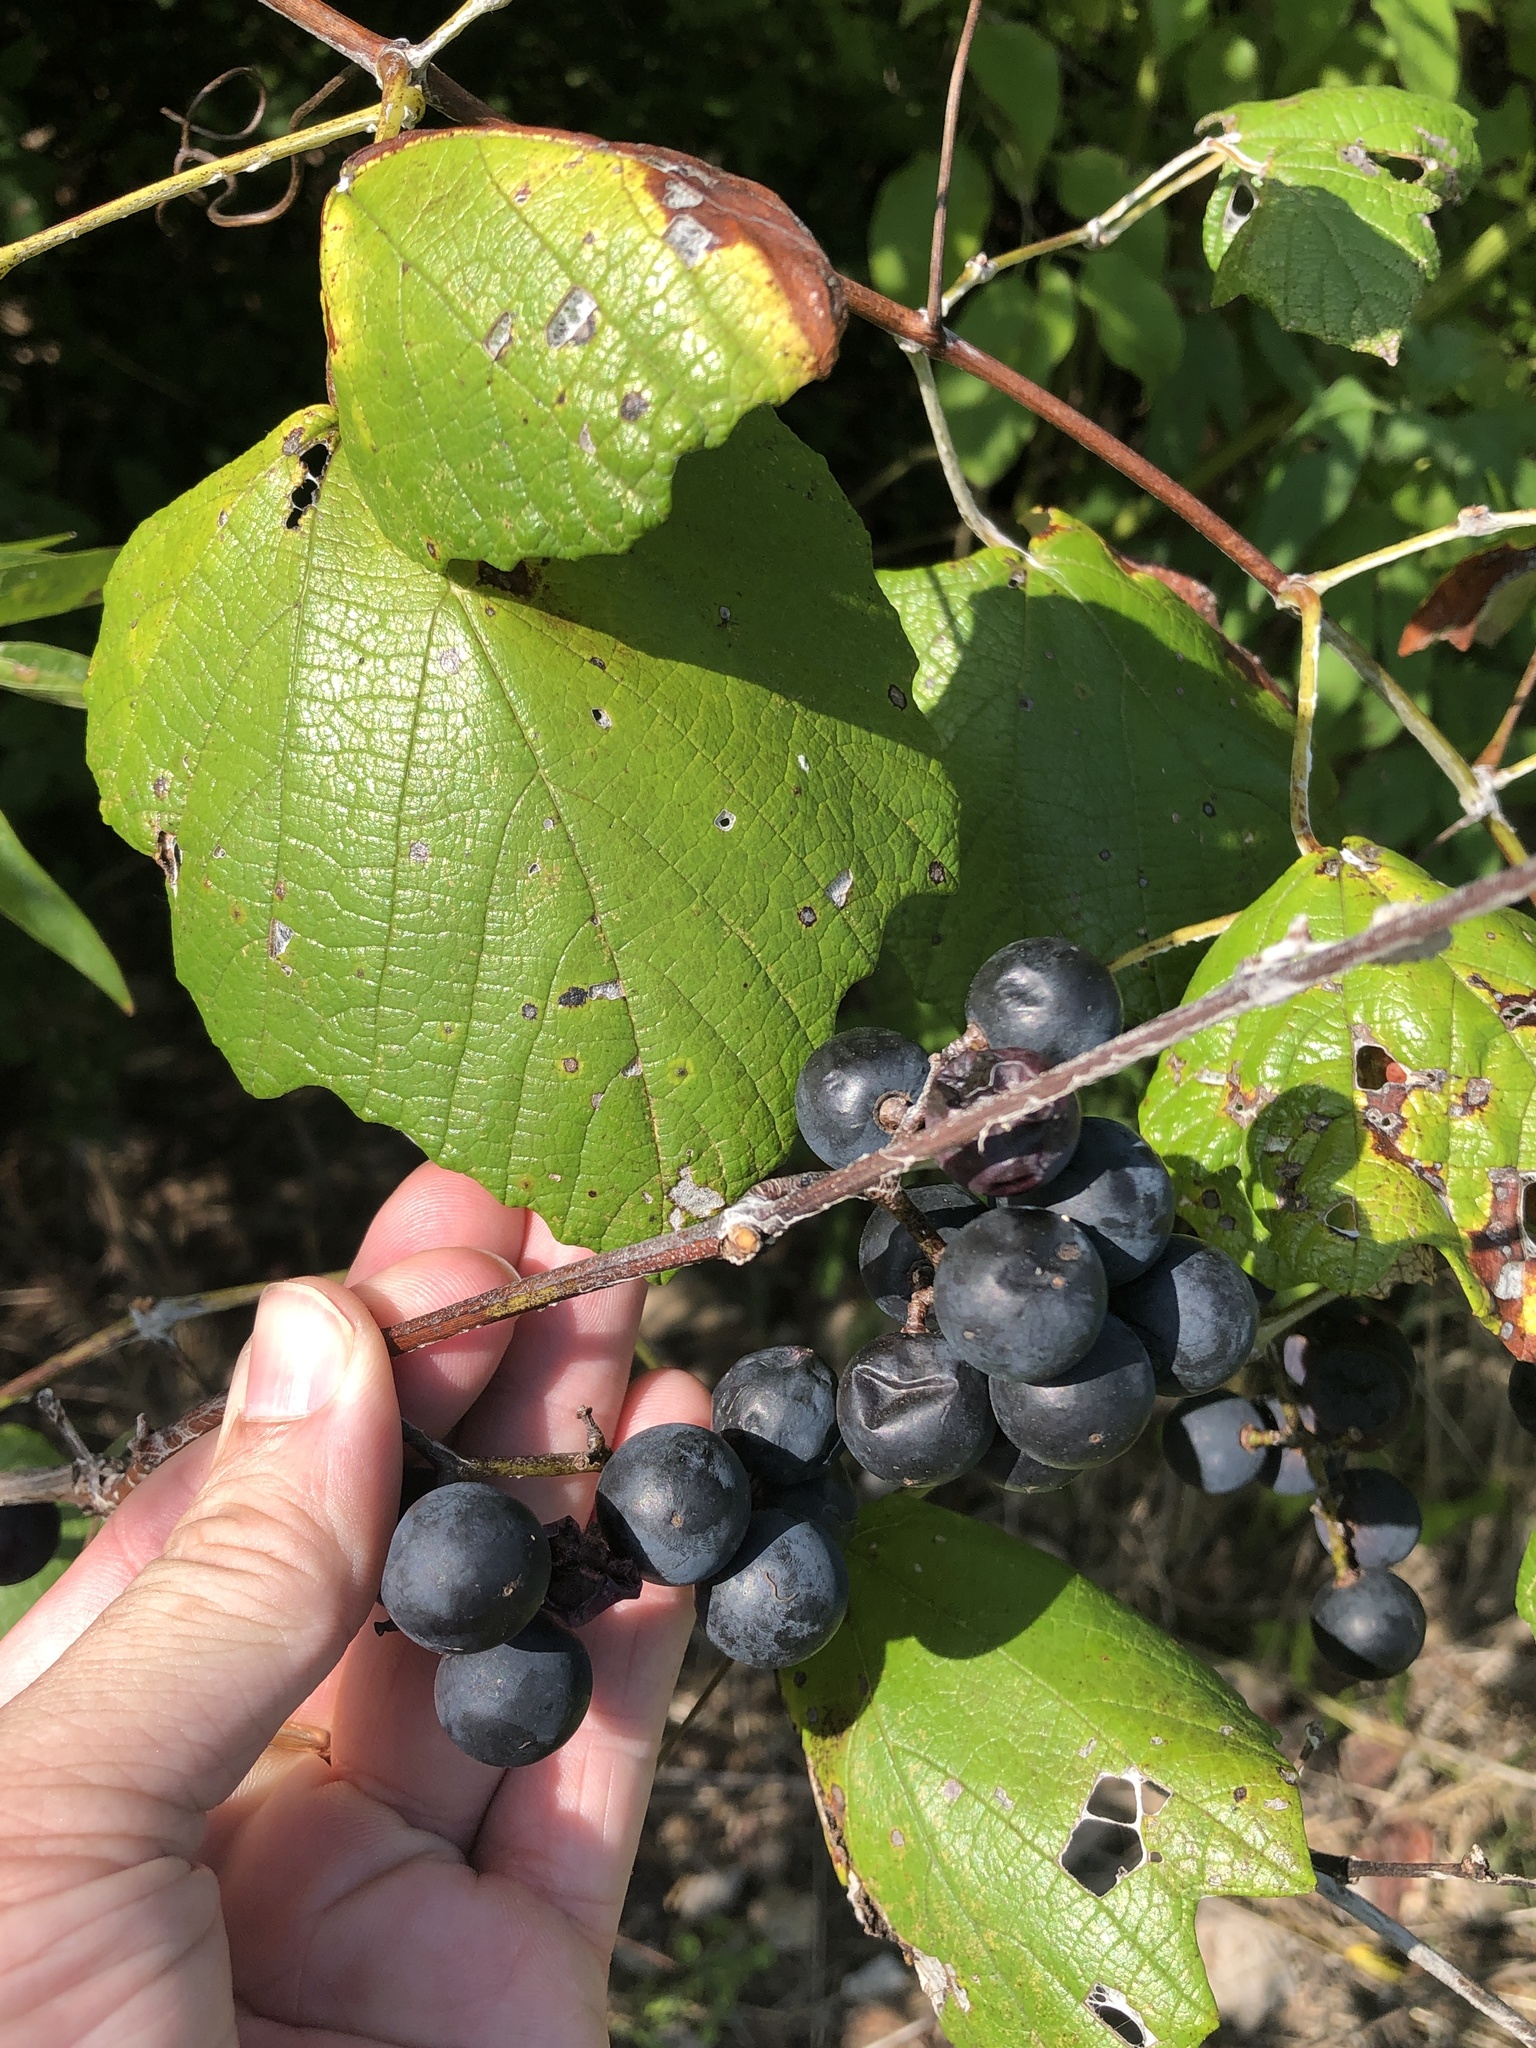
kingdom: Plantae
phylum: Tracheophyta
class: Magnoliopsida
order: Vitales
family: Vitaceae
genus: Vitis
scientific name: Vitis mustangensis
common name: Mustang grape
